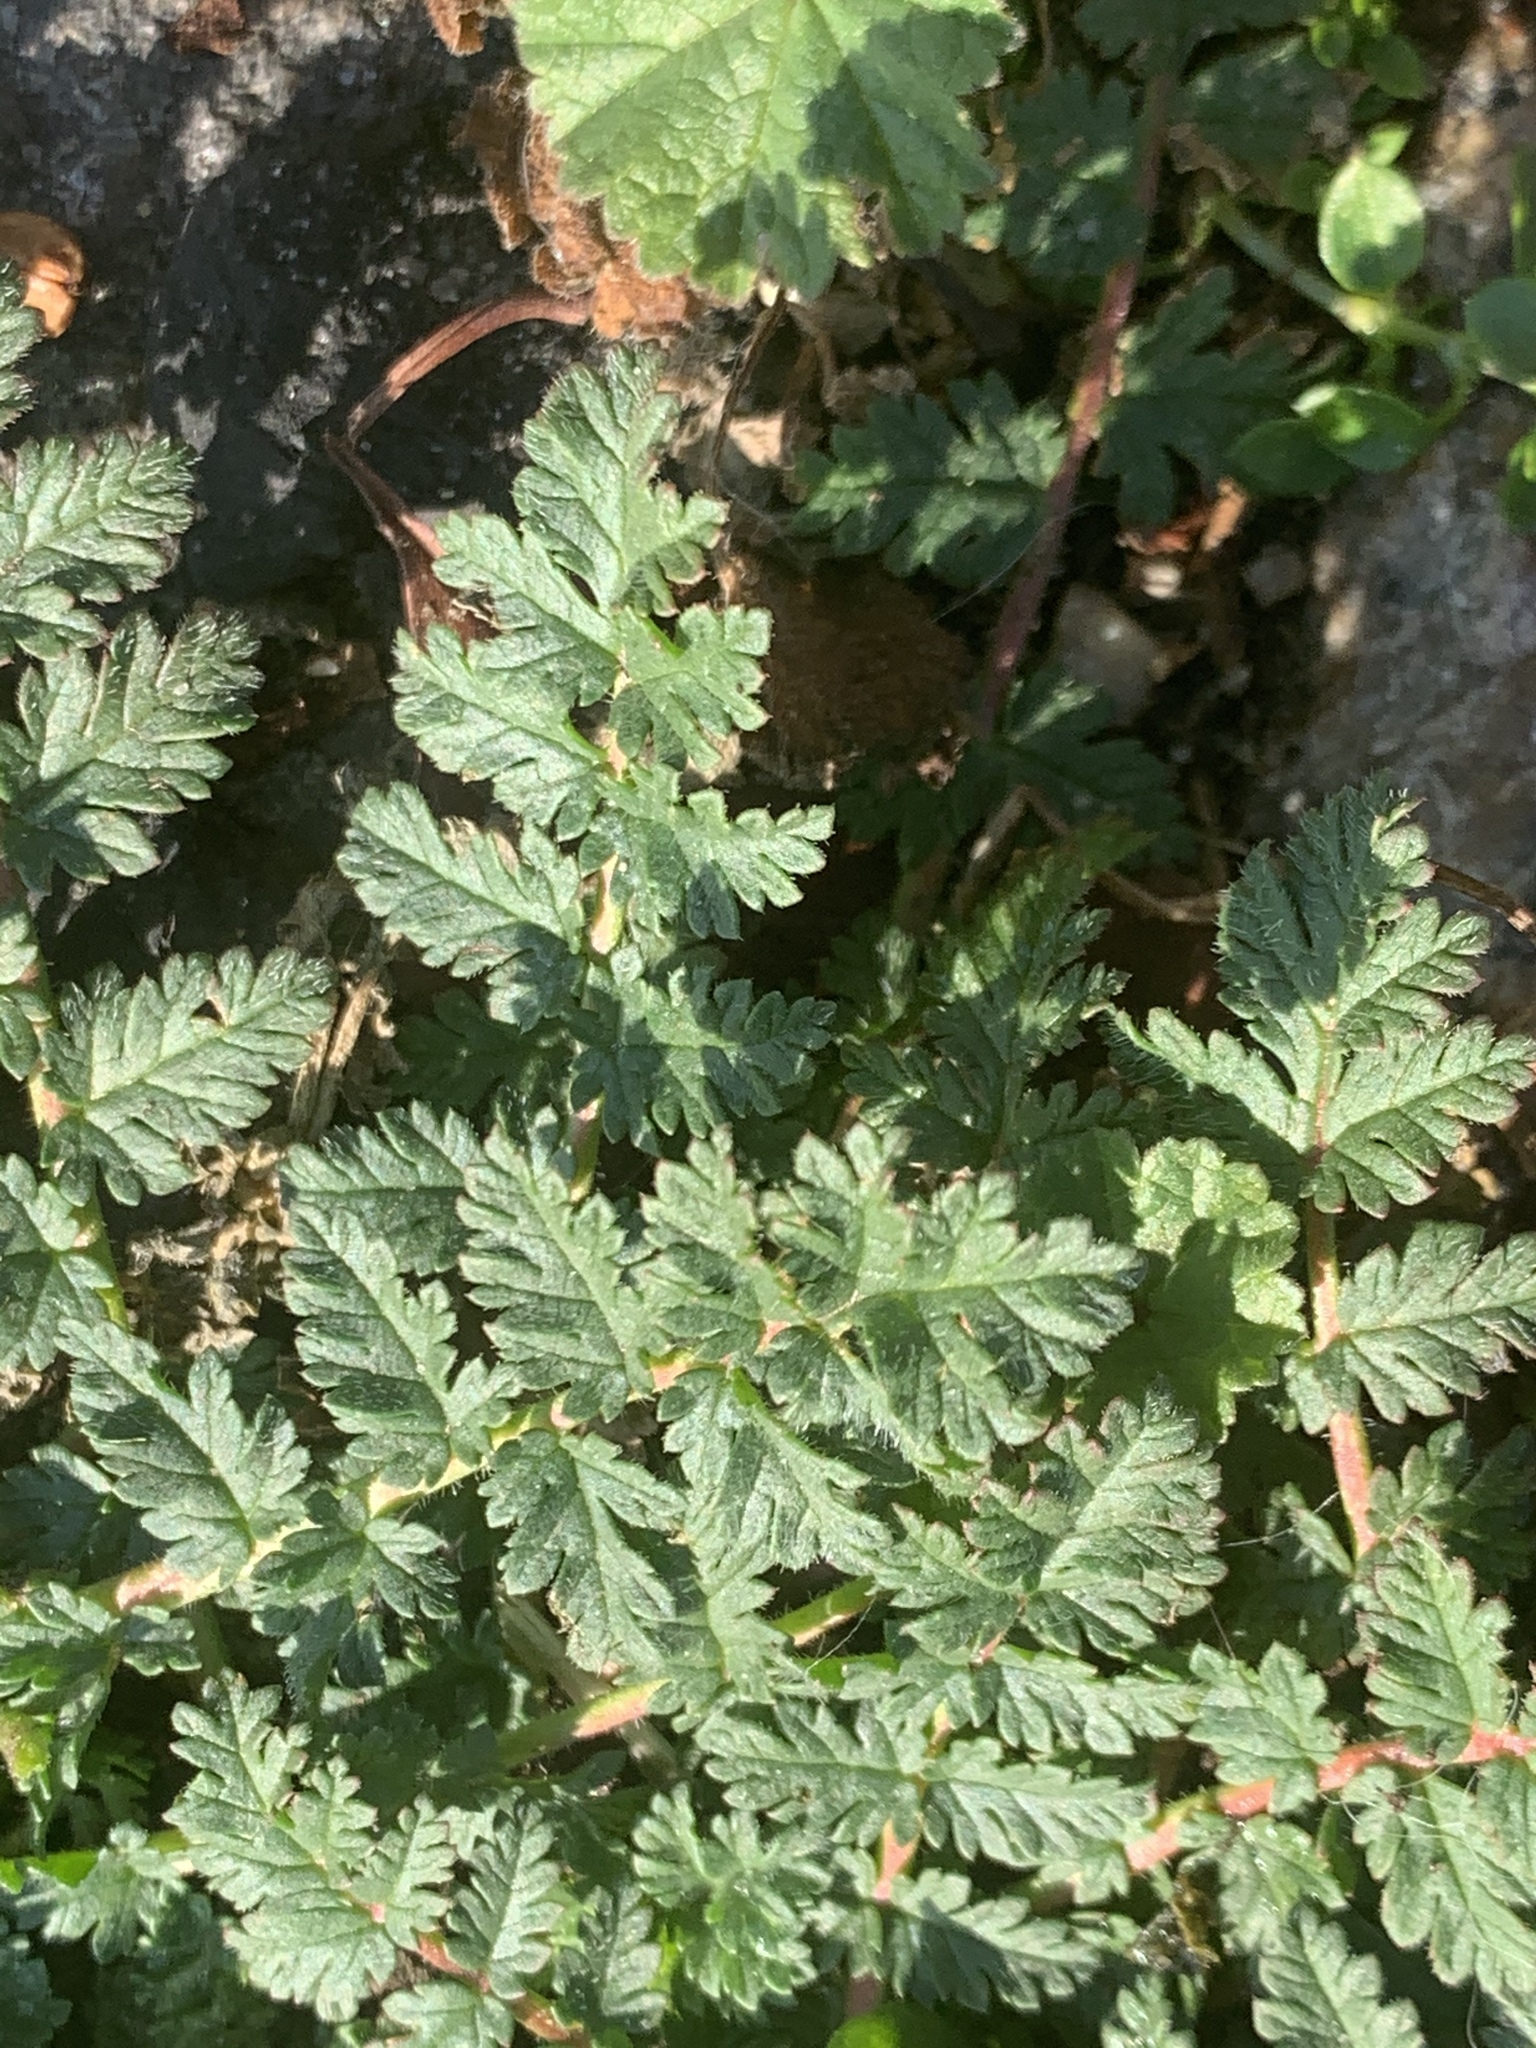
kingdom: Plantae
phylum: Tracheophyta
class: Magnoliopsida
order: Geraniales
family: Geraniaceae
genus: Erodium
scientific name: Erodium cicutarium
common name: Common stork's-bill
